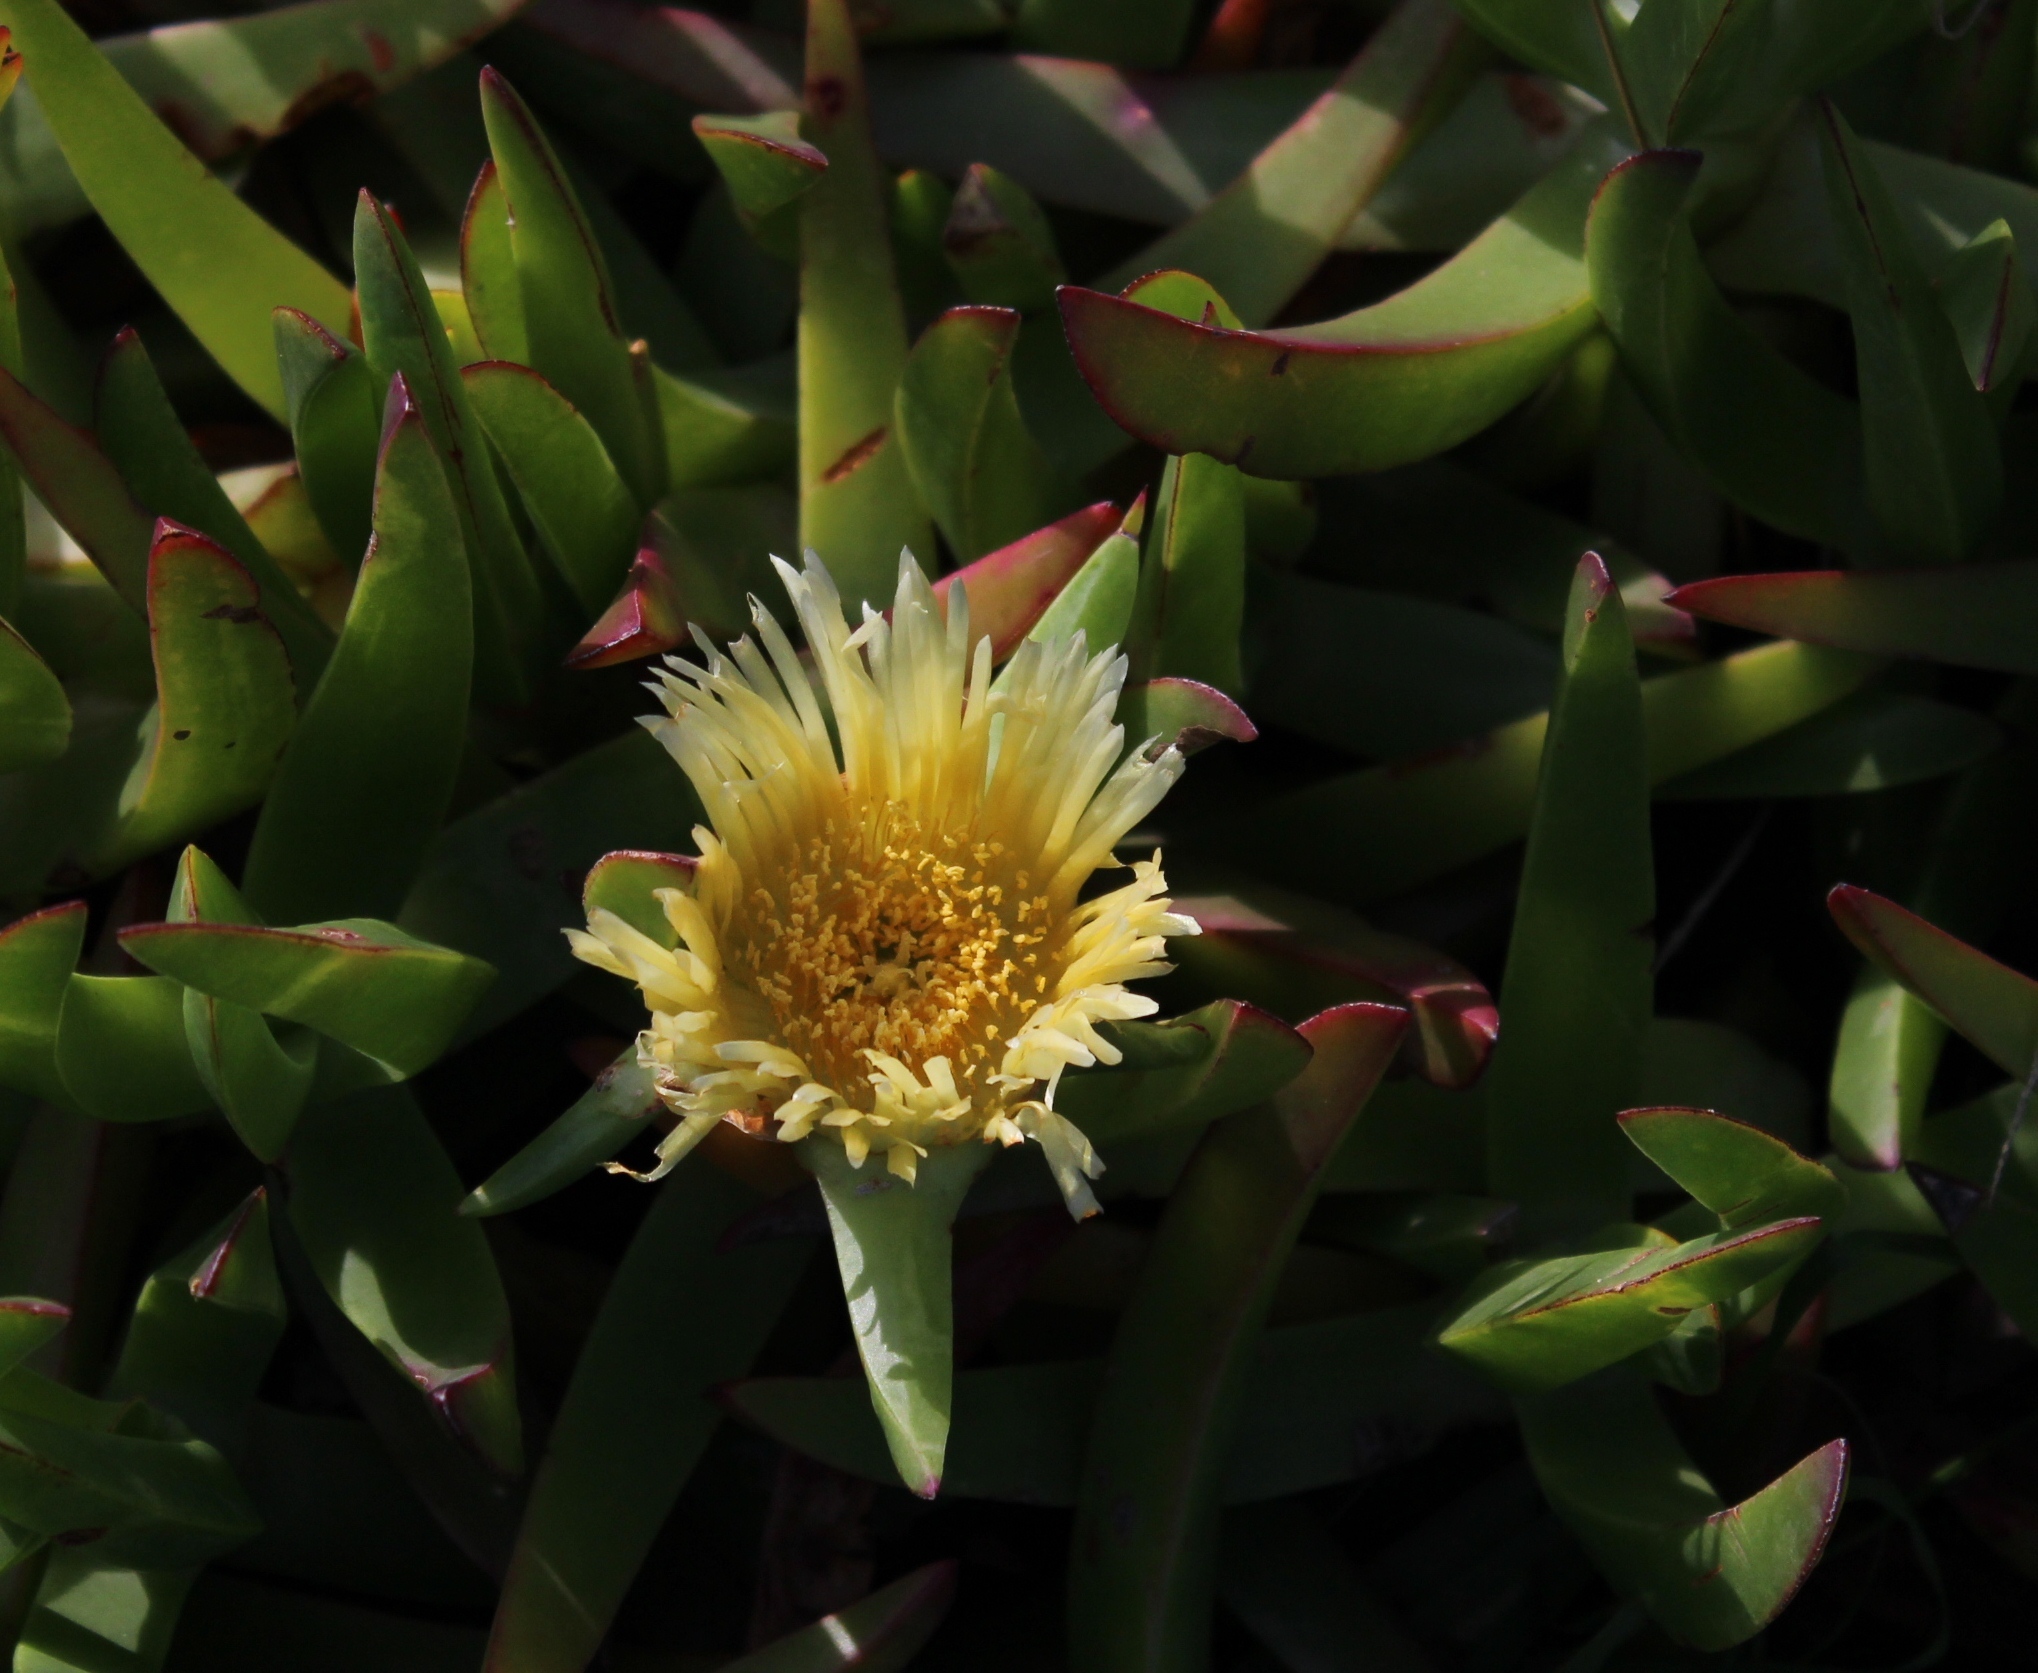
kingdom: Plantae
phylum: Tracheophyta
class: Magnoliopsida
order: Caryophyllales
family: Aizoaceae
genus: Carpobrotus
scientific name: Carpobrotus edulis
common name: Hottentot-fig
